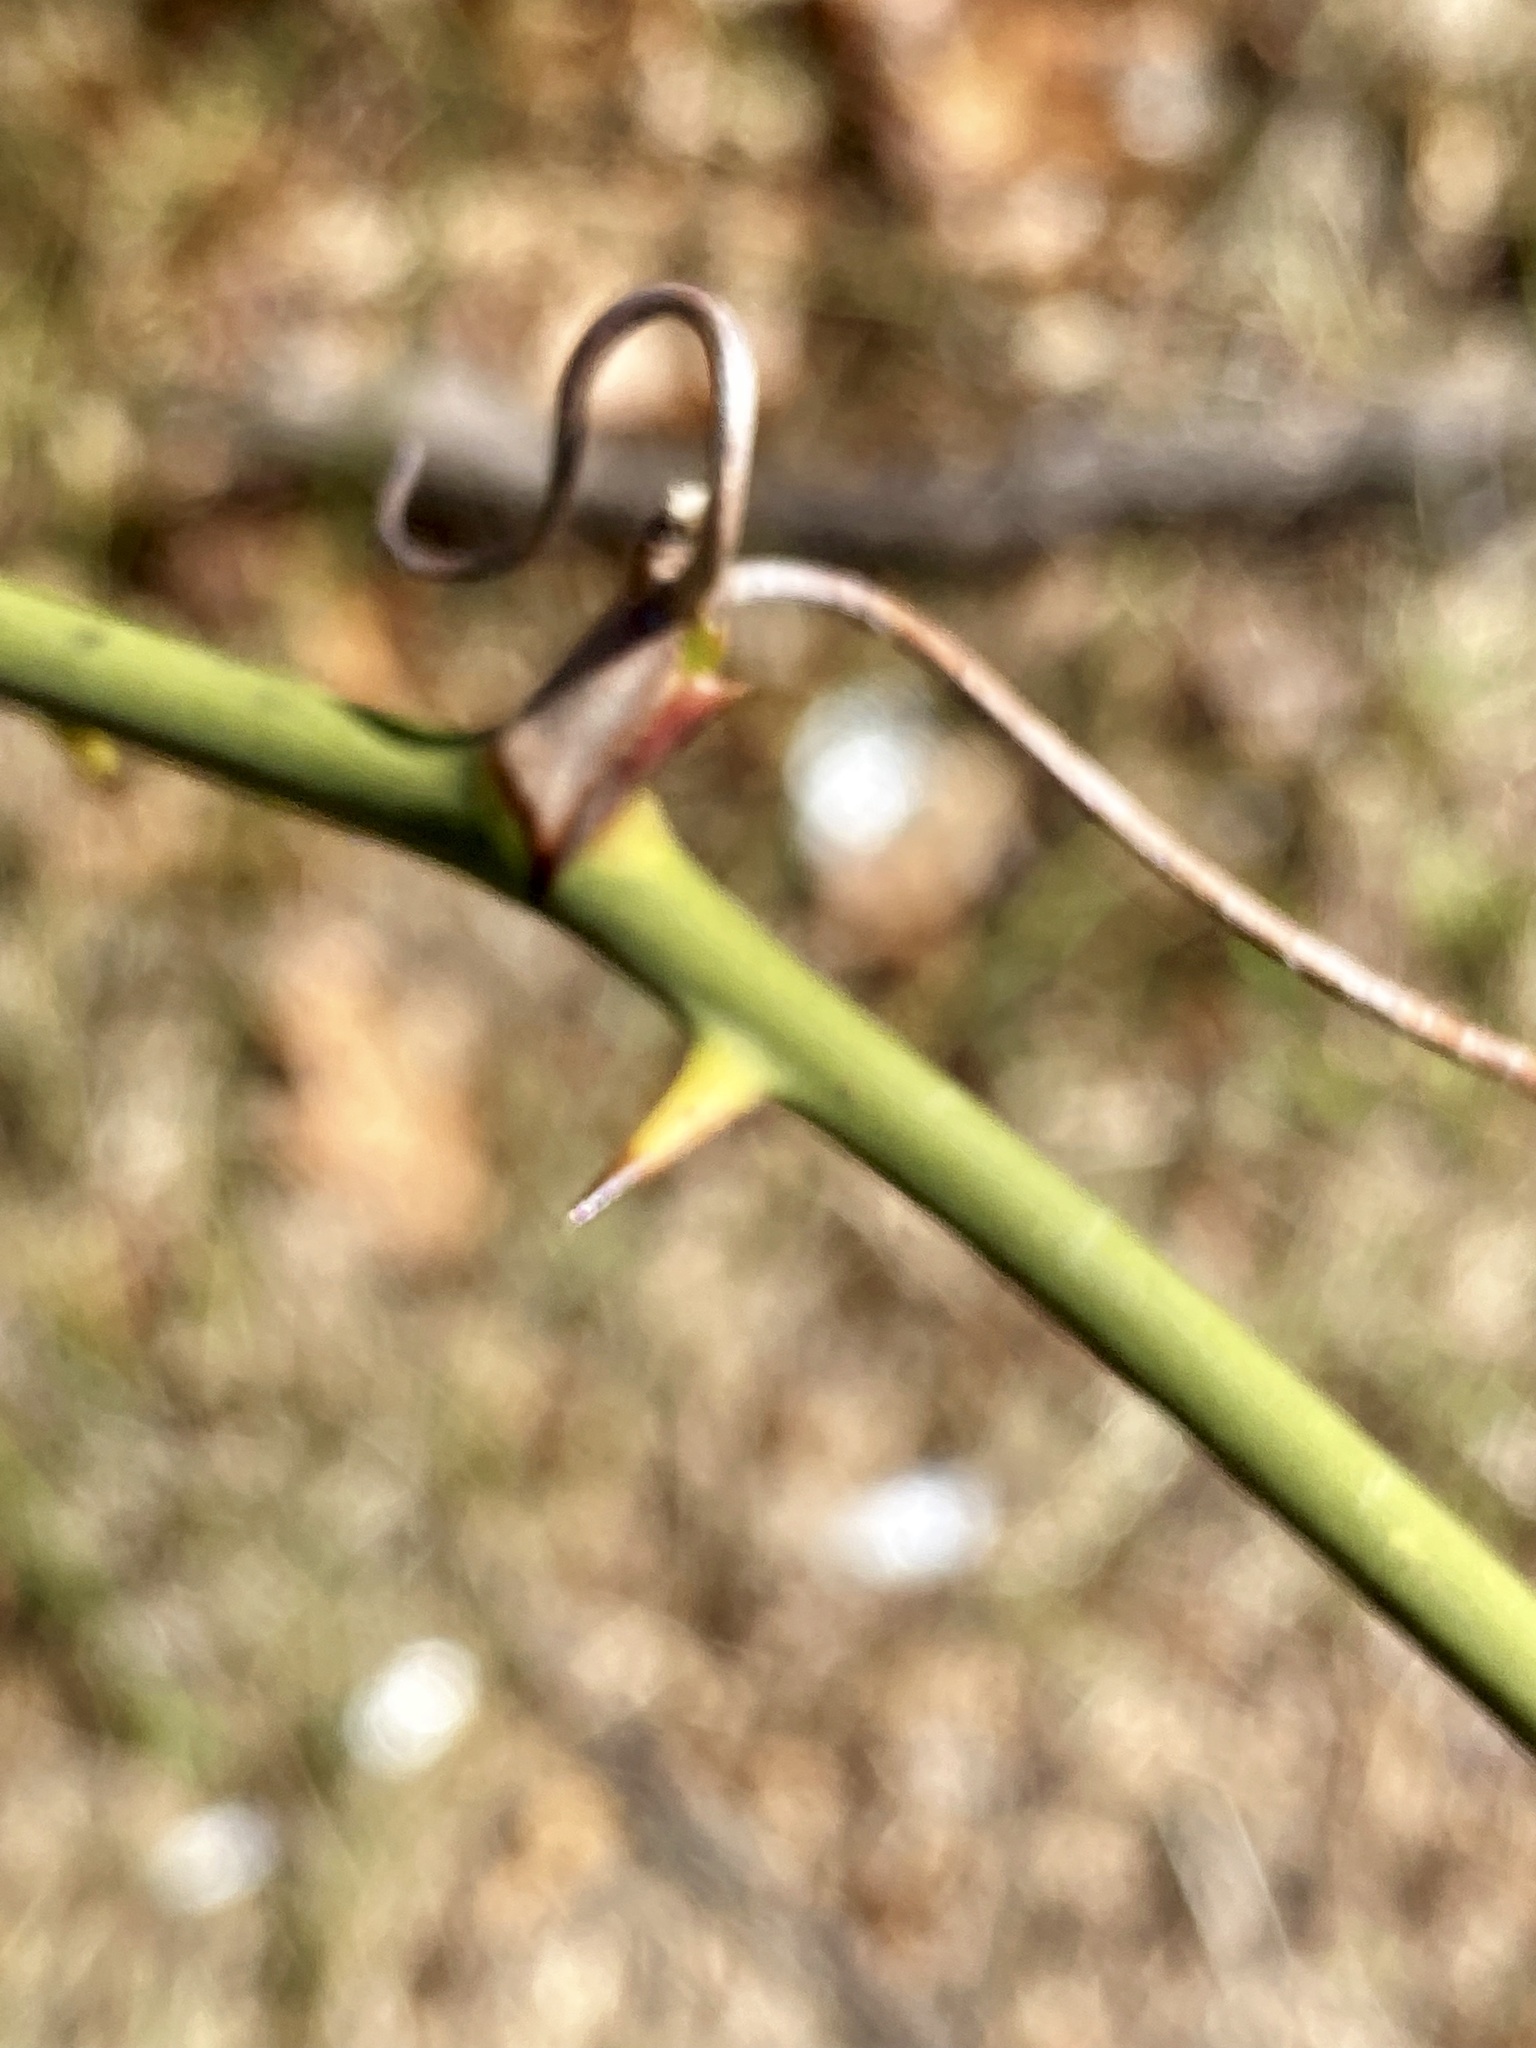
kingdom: Plantae
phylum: Tracheophyta
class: Liliopsida
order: Liliales
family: Smilacaceae
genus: Smilax
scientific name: Smilax rotundifolia
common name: Bullbriar
